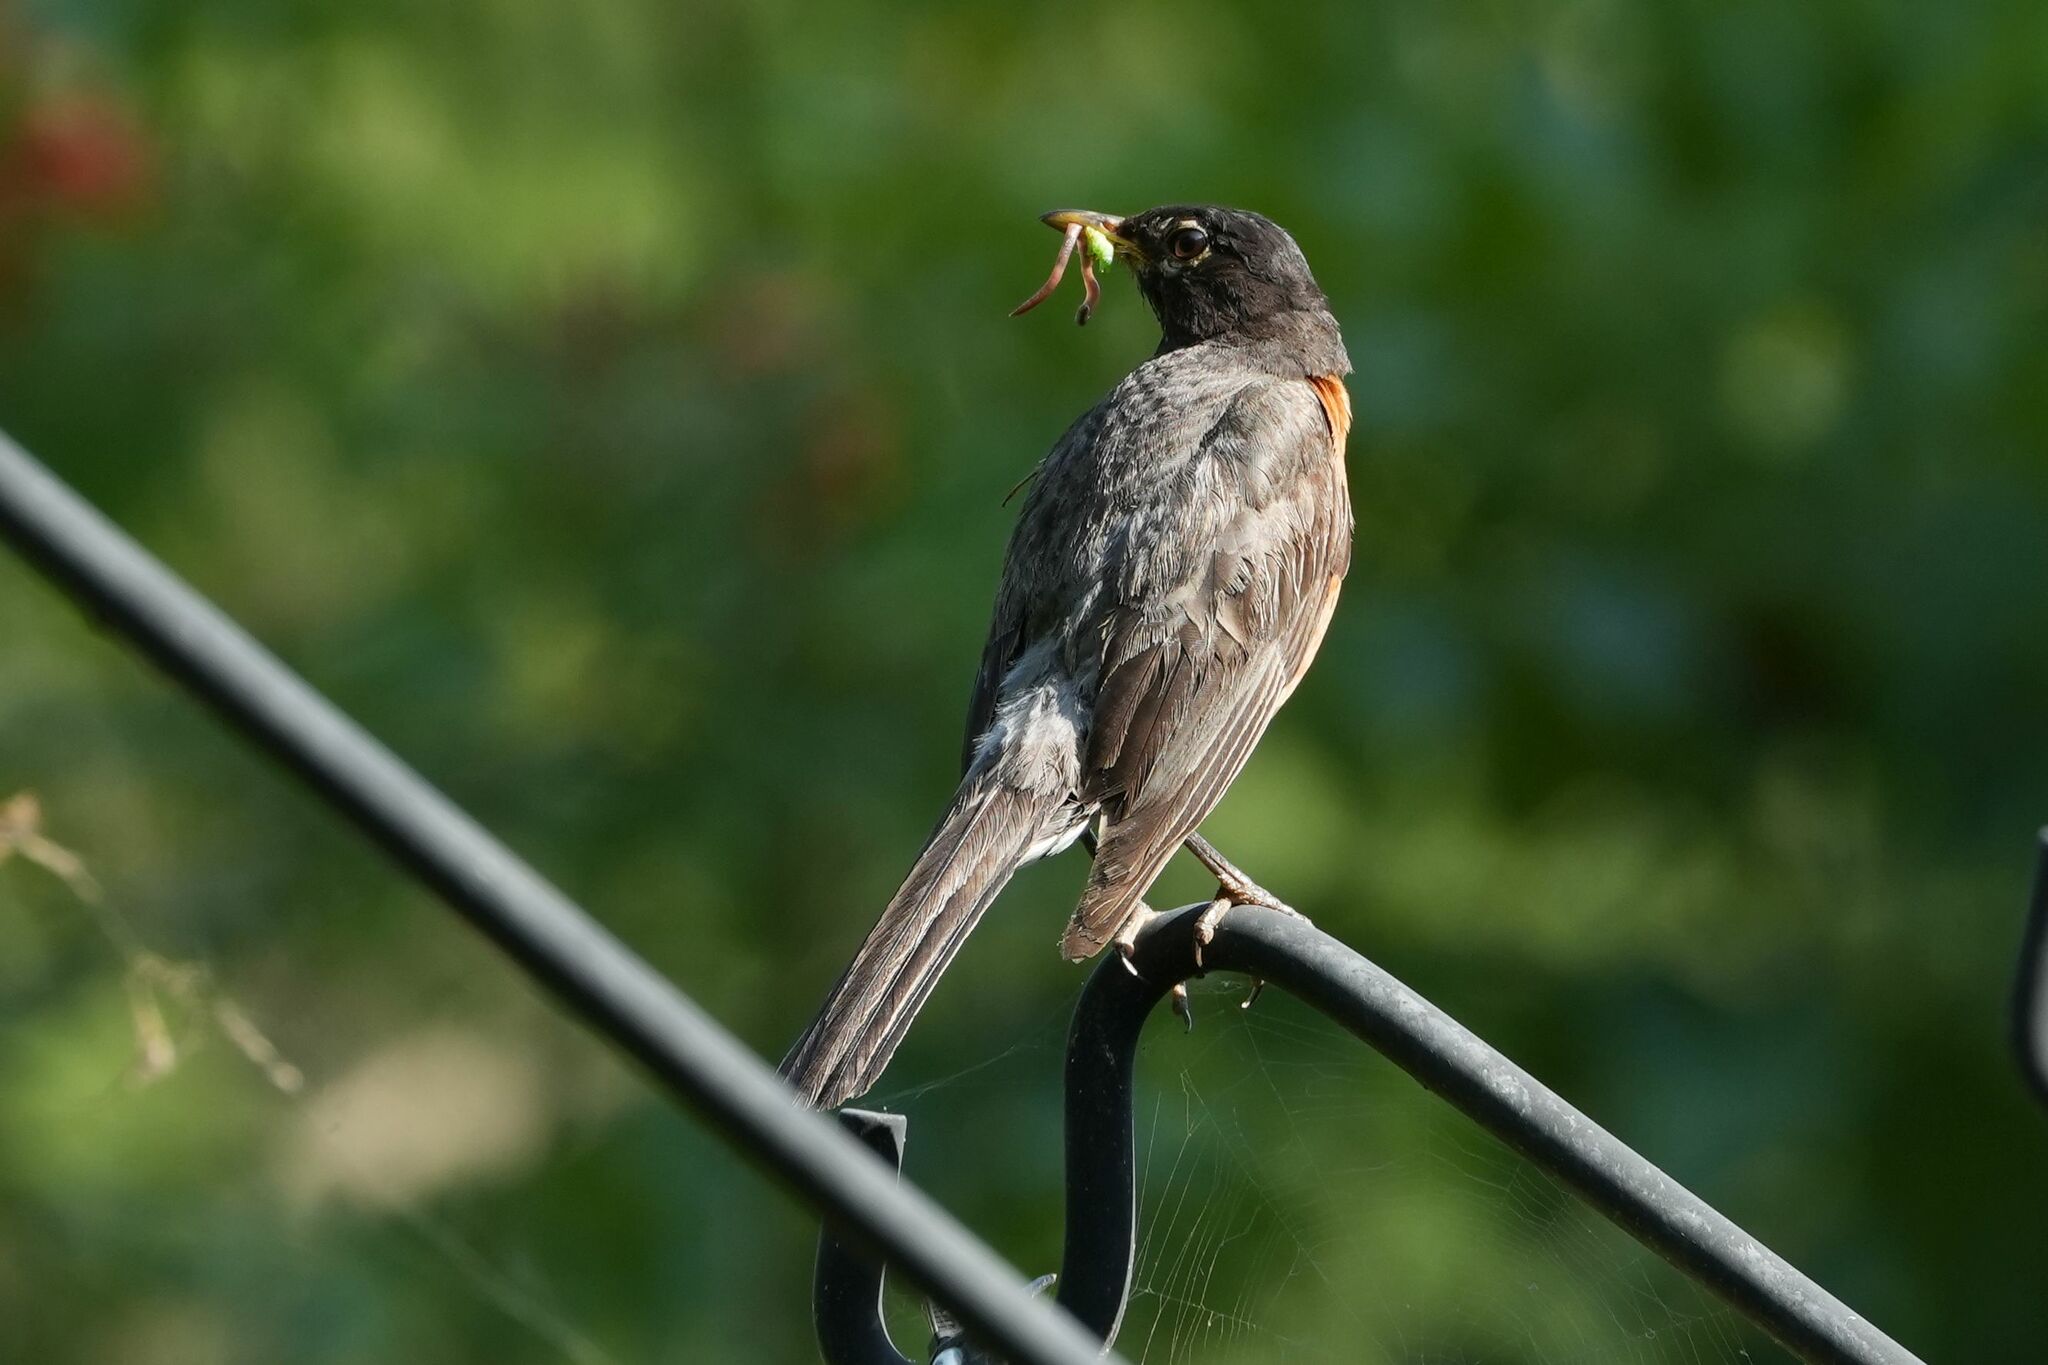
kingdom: Animalia
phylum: Chordata
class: Aves
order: Passeriformes
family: Turdidae
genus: Turdus
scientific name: Turdus migratorius
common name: American robin
